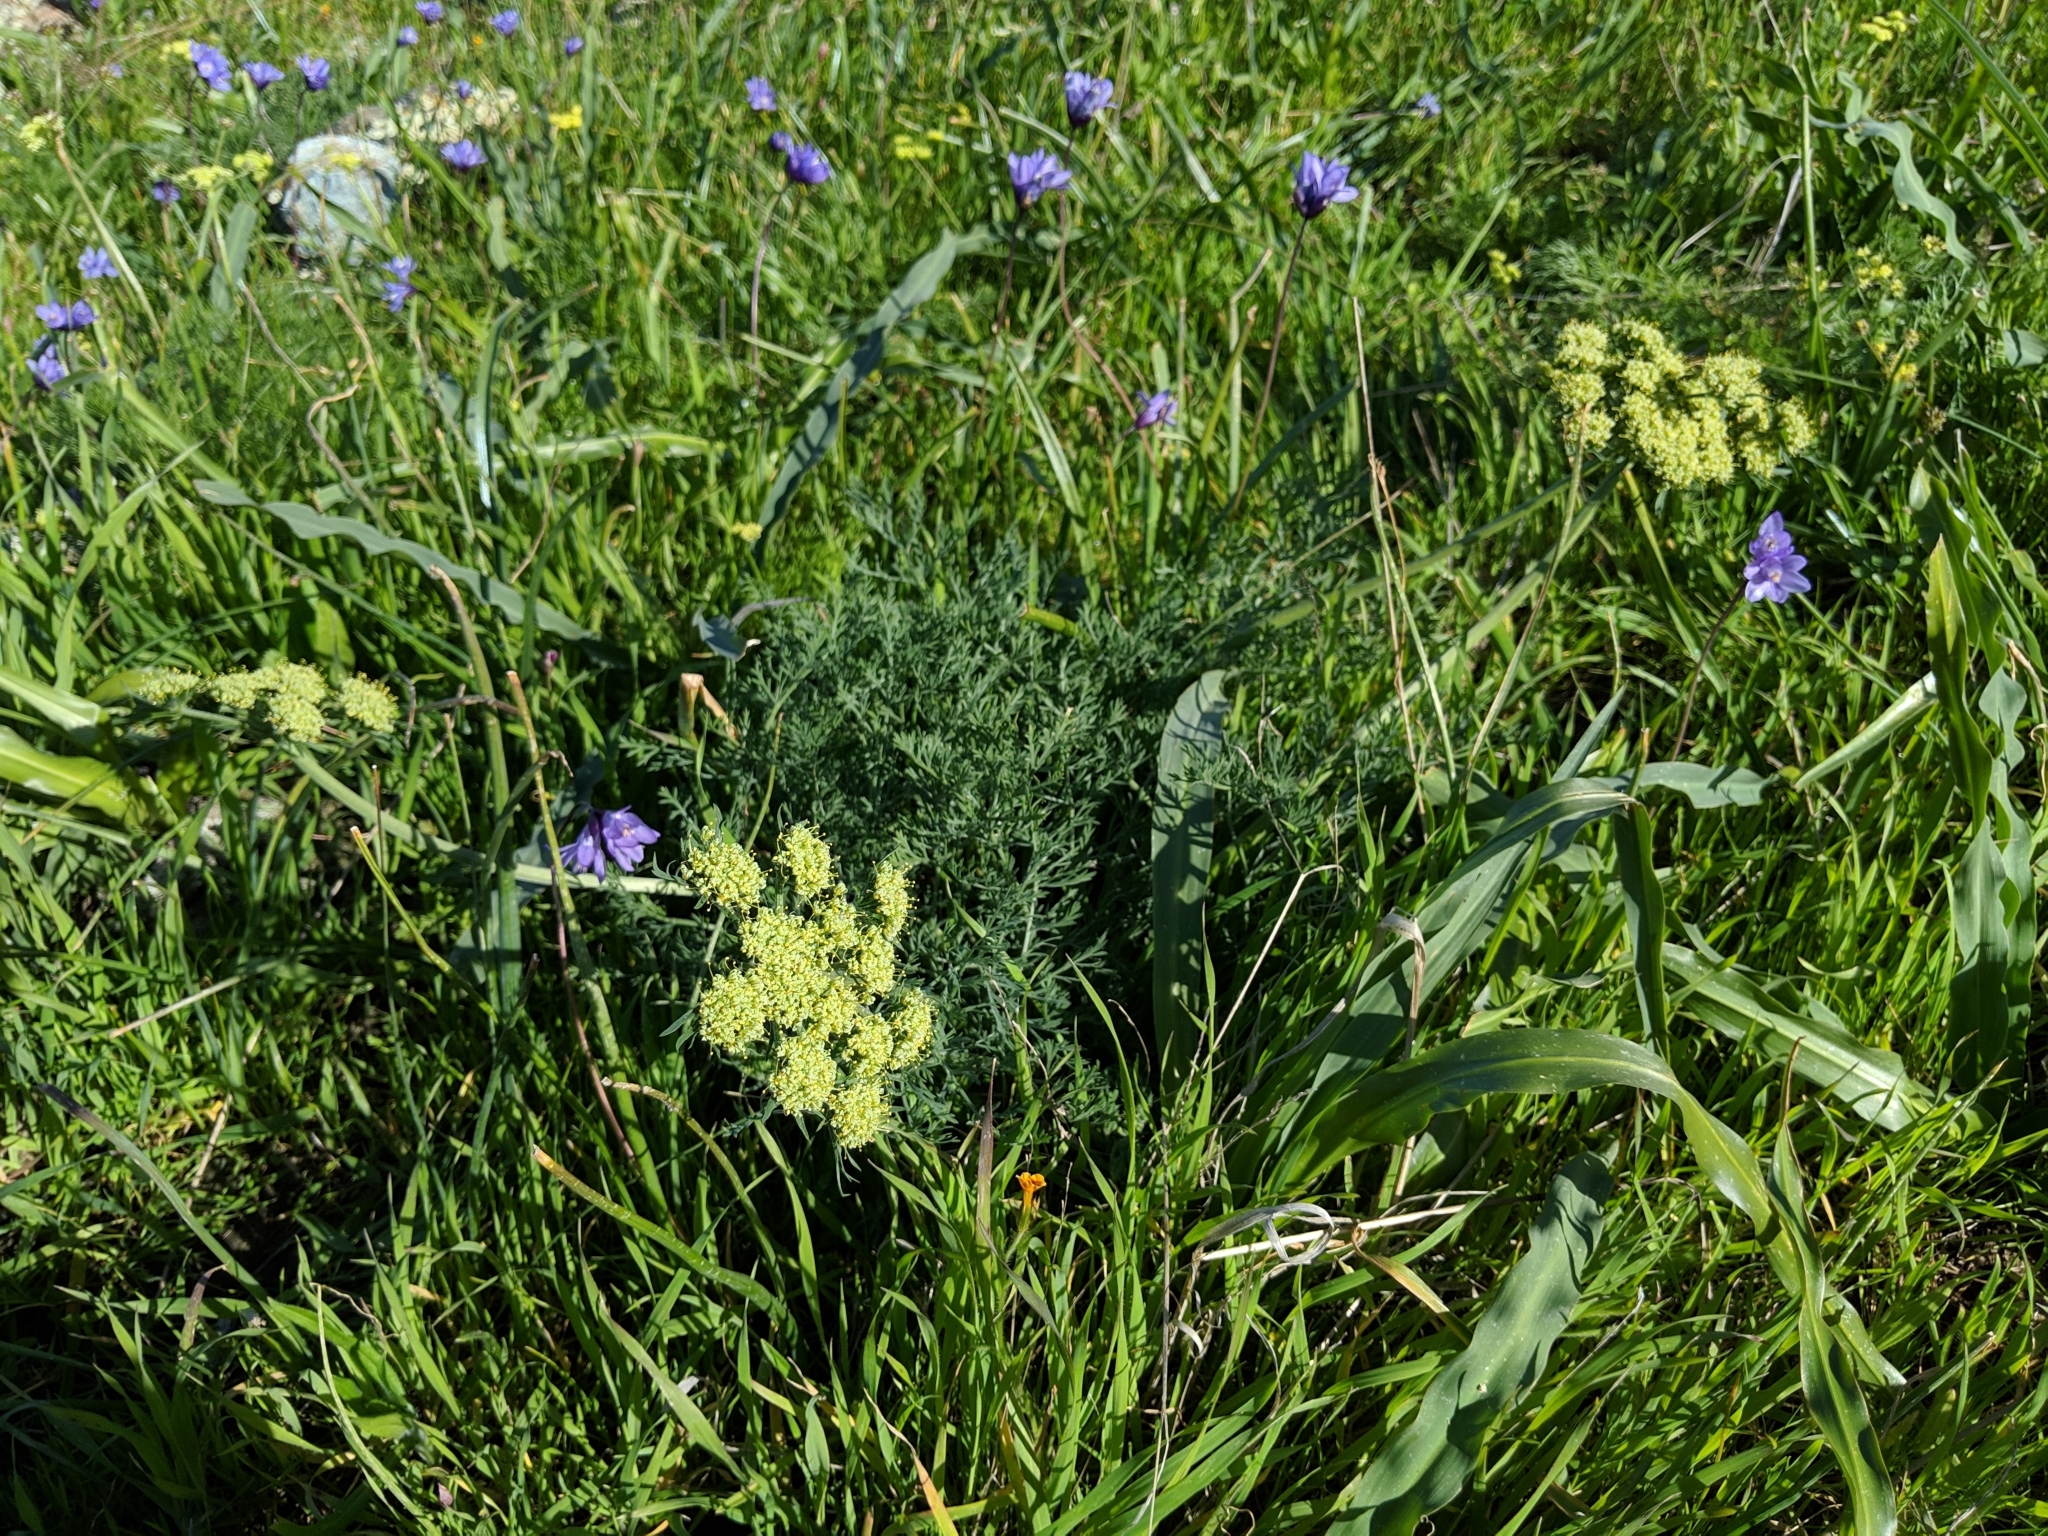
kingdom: Plantae
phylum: Tracheophyta
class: Magnoliopsida
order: Apiales
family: Apiaceae
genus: Lomatium
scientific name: Lomatium macrocarpum
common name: Big-seed biscuitroot
